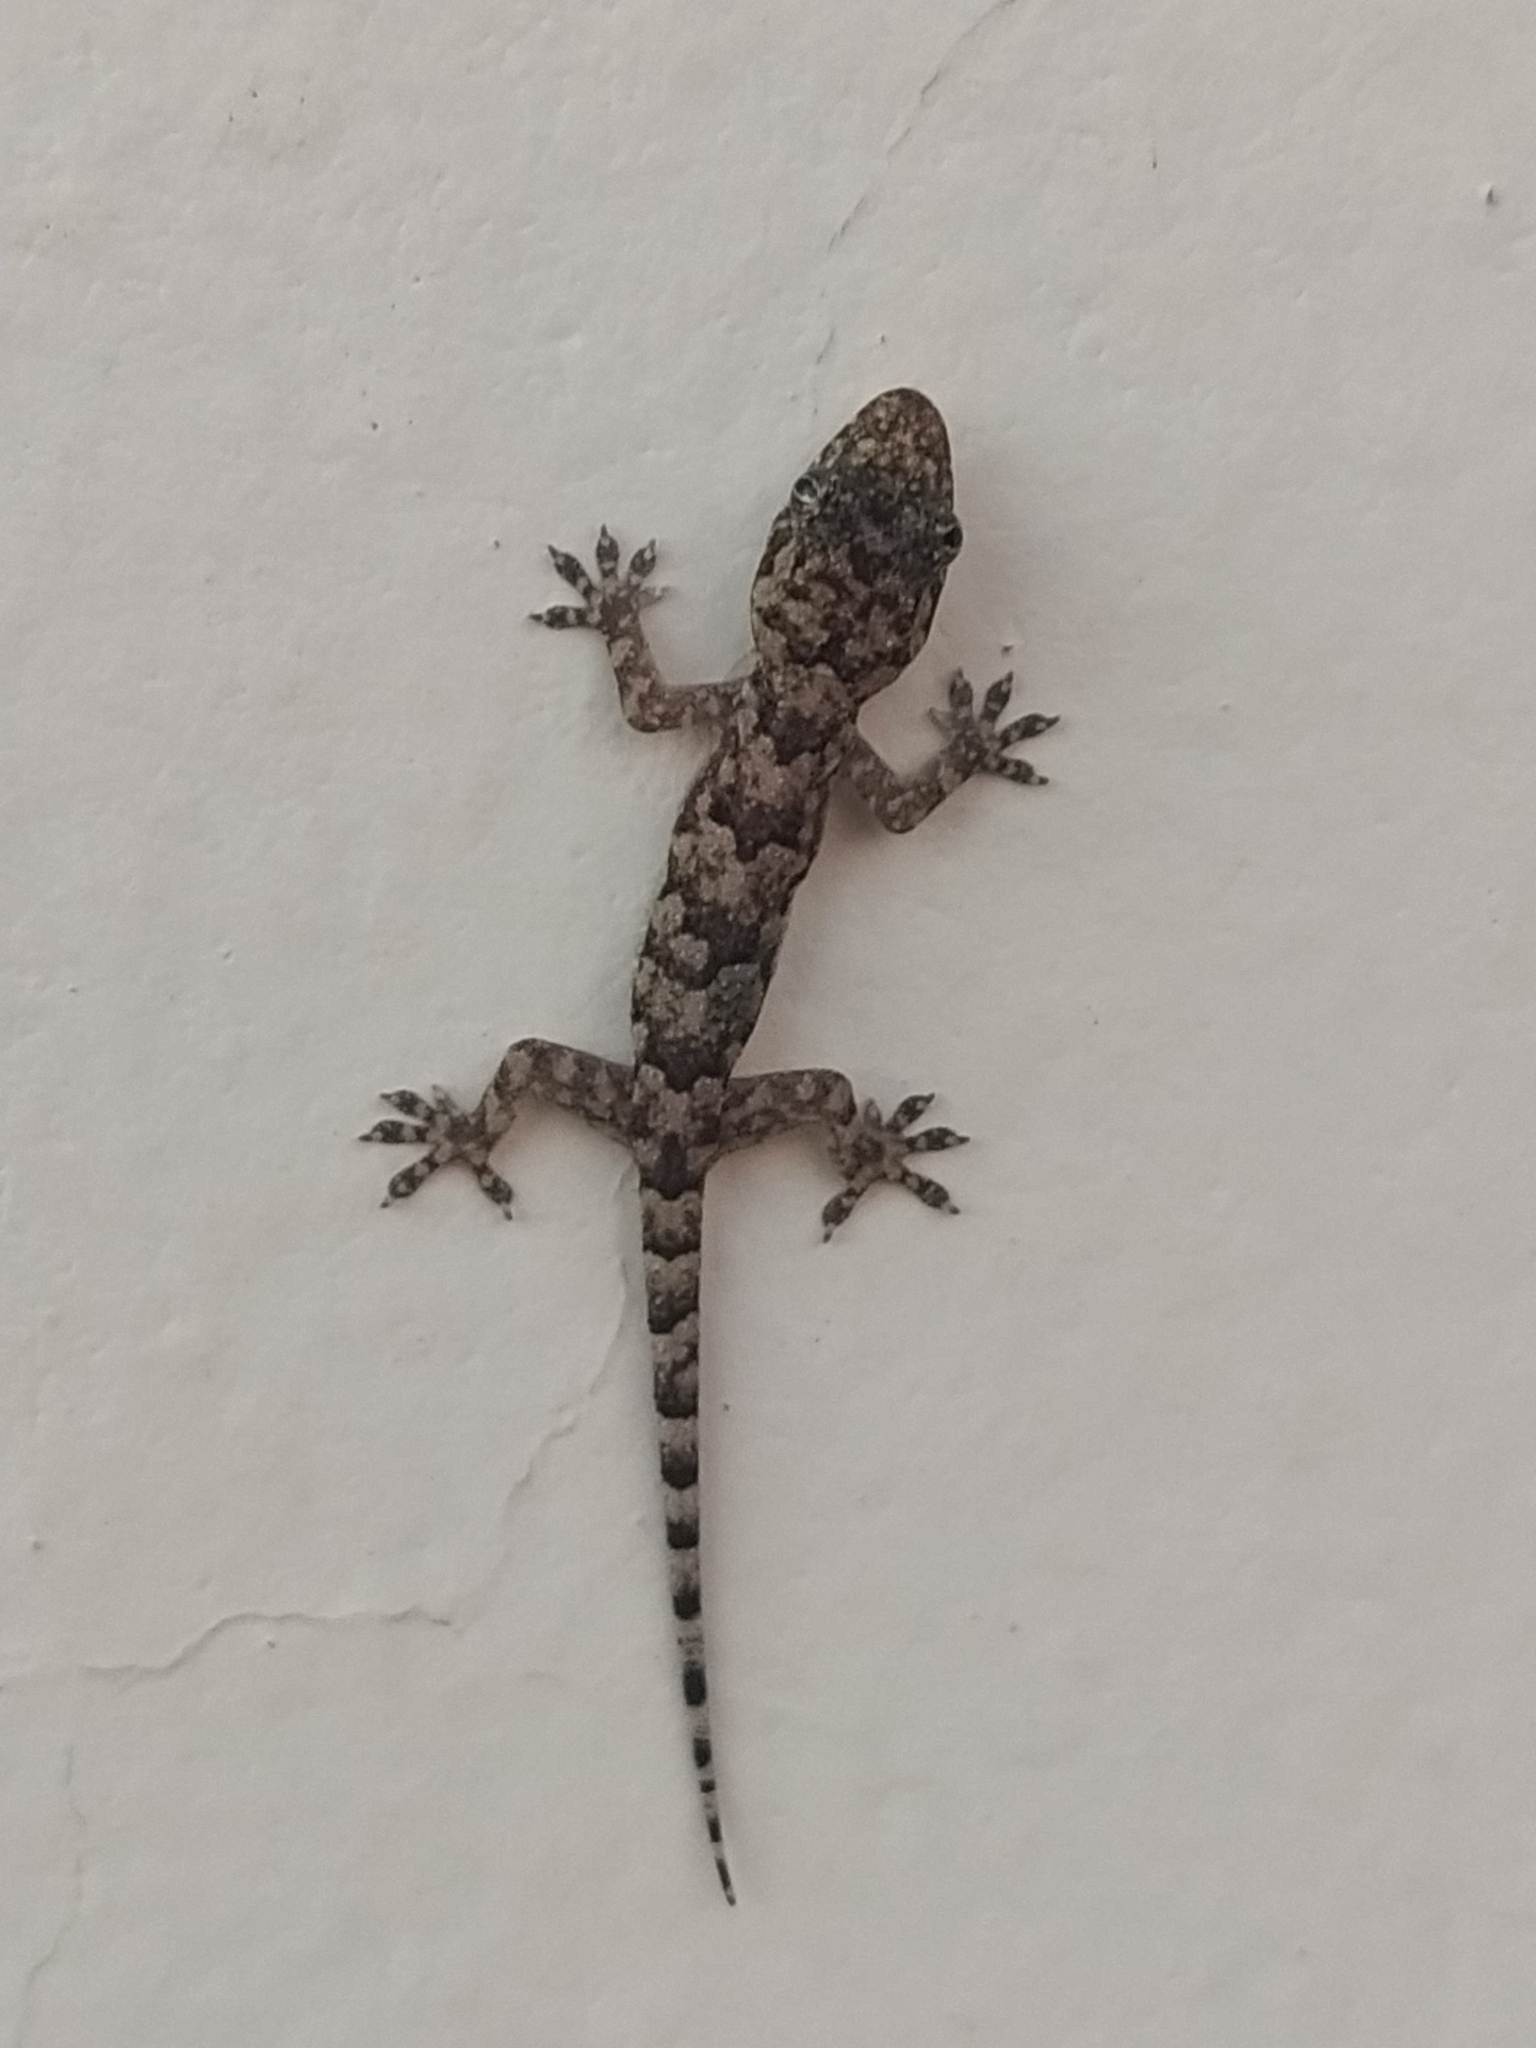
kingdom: Animalia
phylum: Chordata
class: Squamata
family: Gekkonidae
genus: Hemidactylus
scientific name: Hemidactylus mabouia
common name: House gecko
